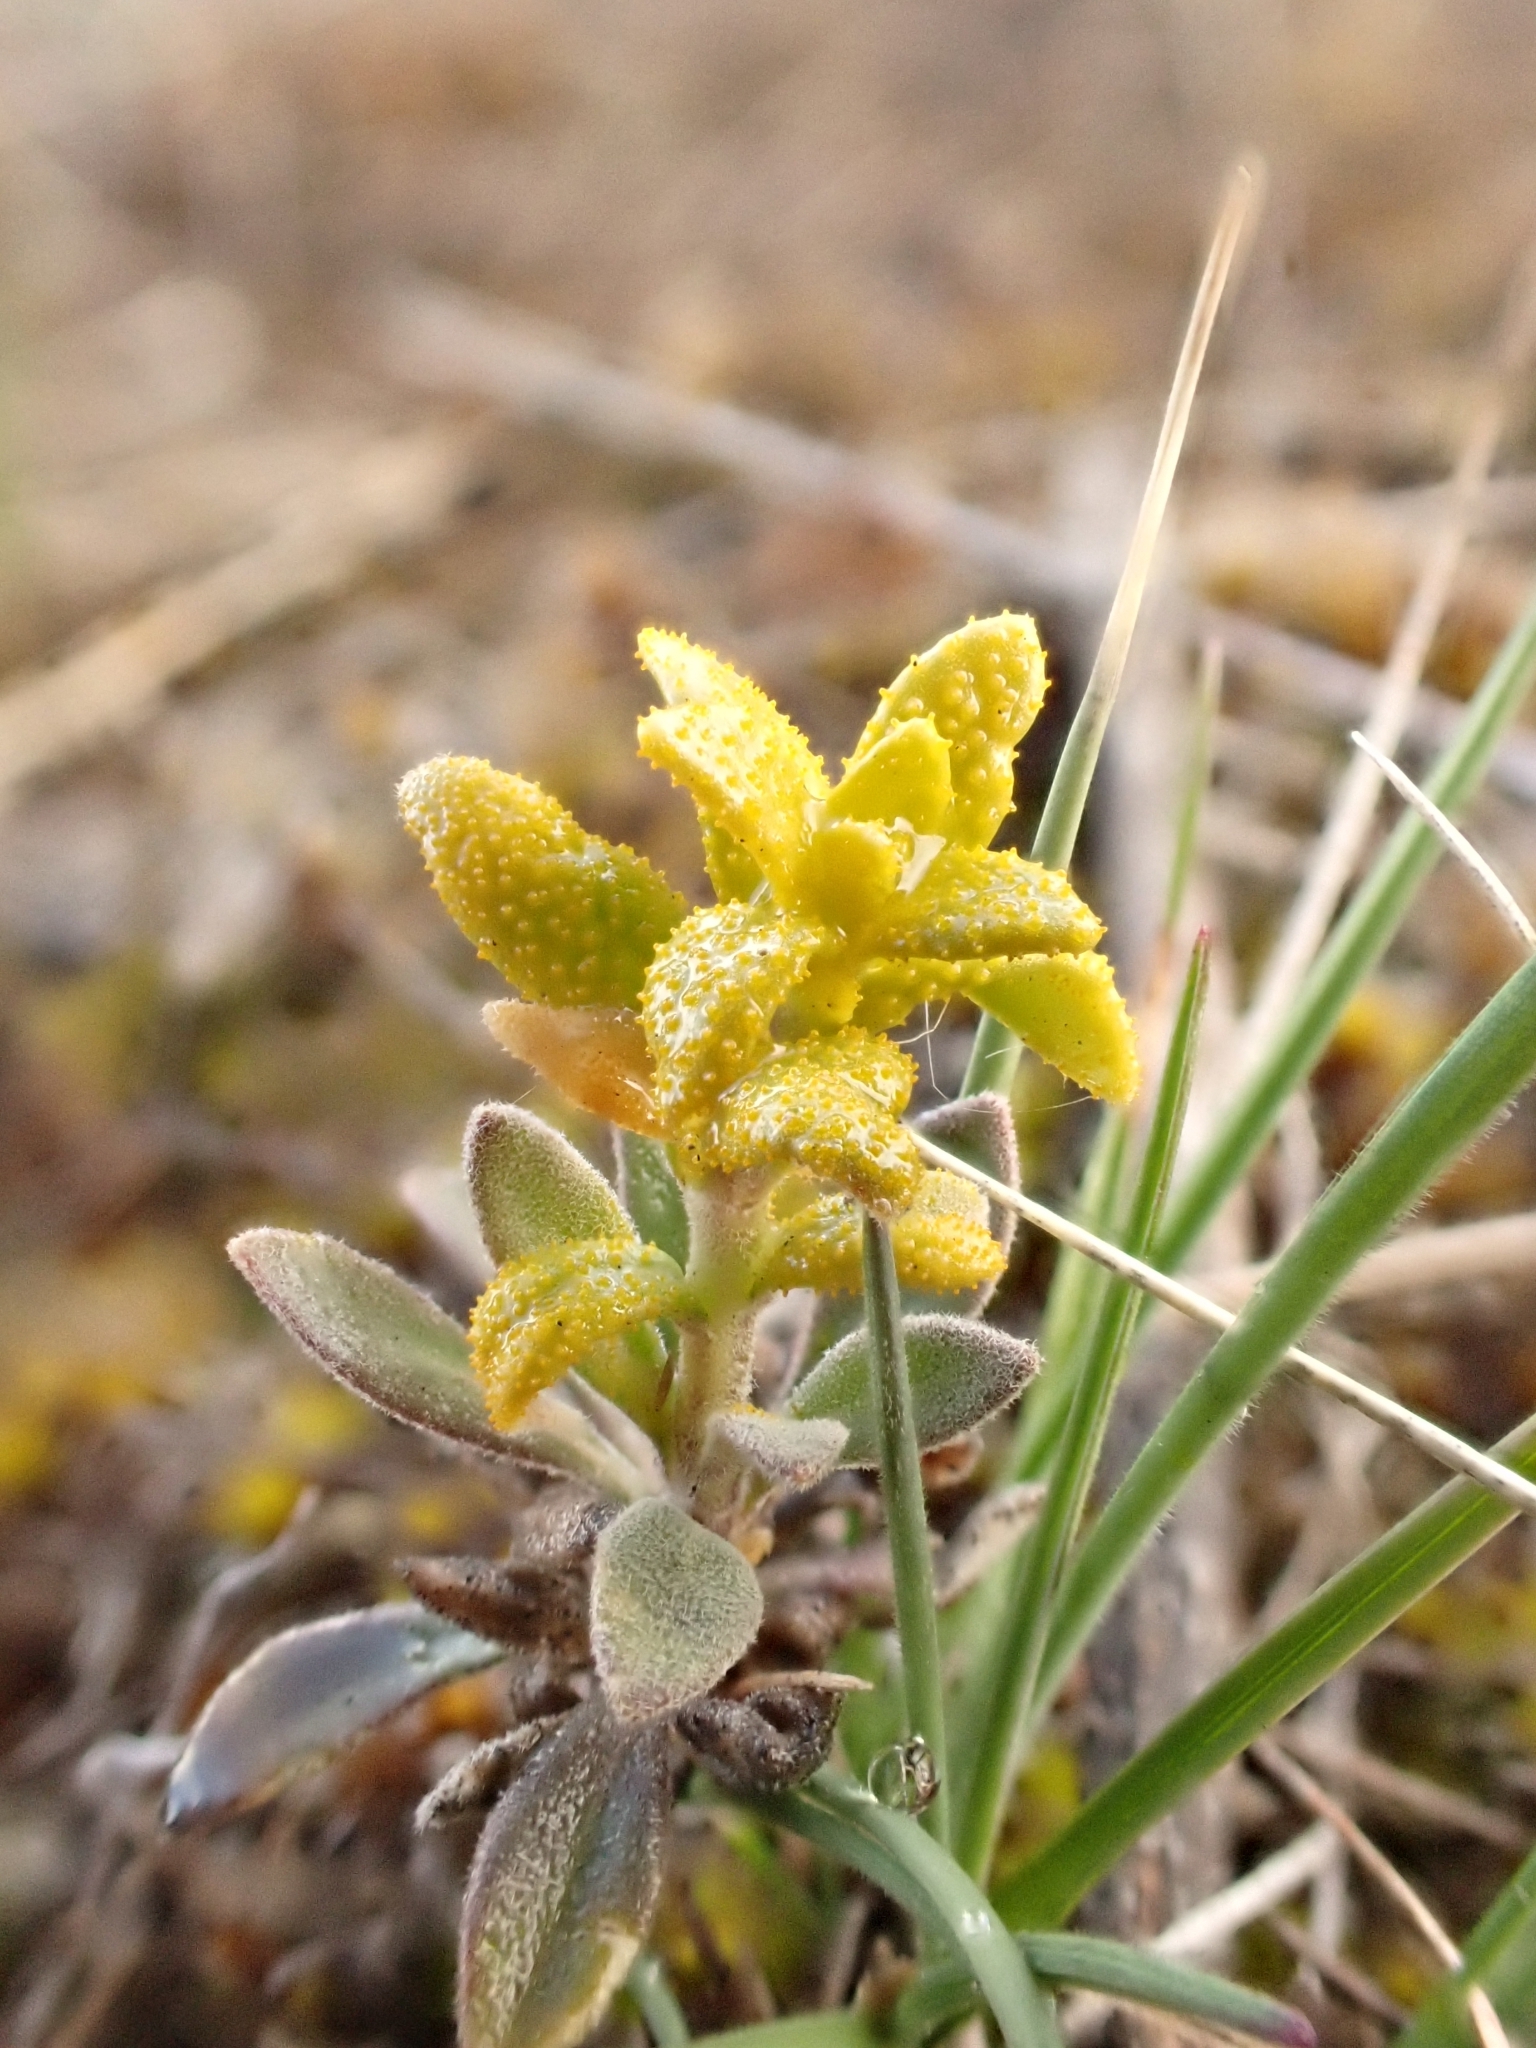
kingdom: Fungi
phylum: Basidiomycota
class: Pucciniomycetes
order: Pucciniales
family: Pucciniaceae
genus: Puccinia
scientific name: Puccinia monoica
